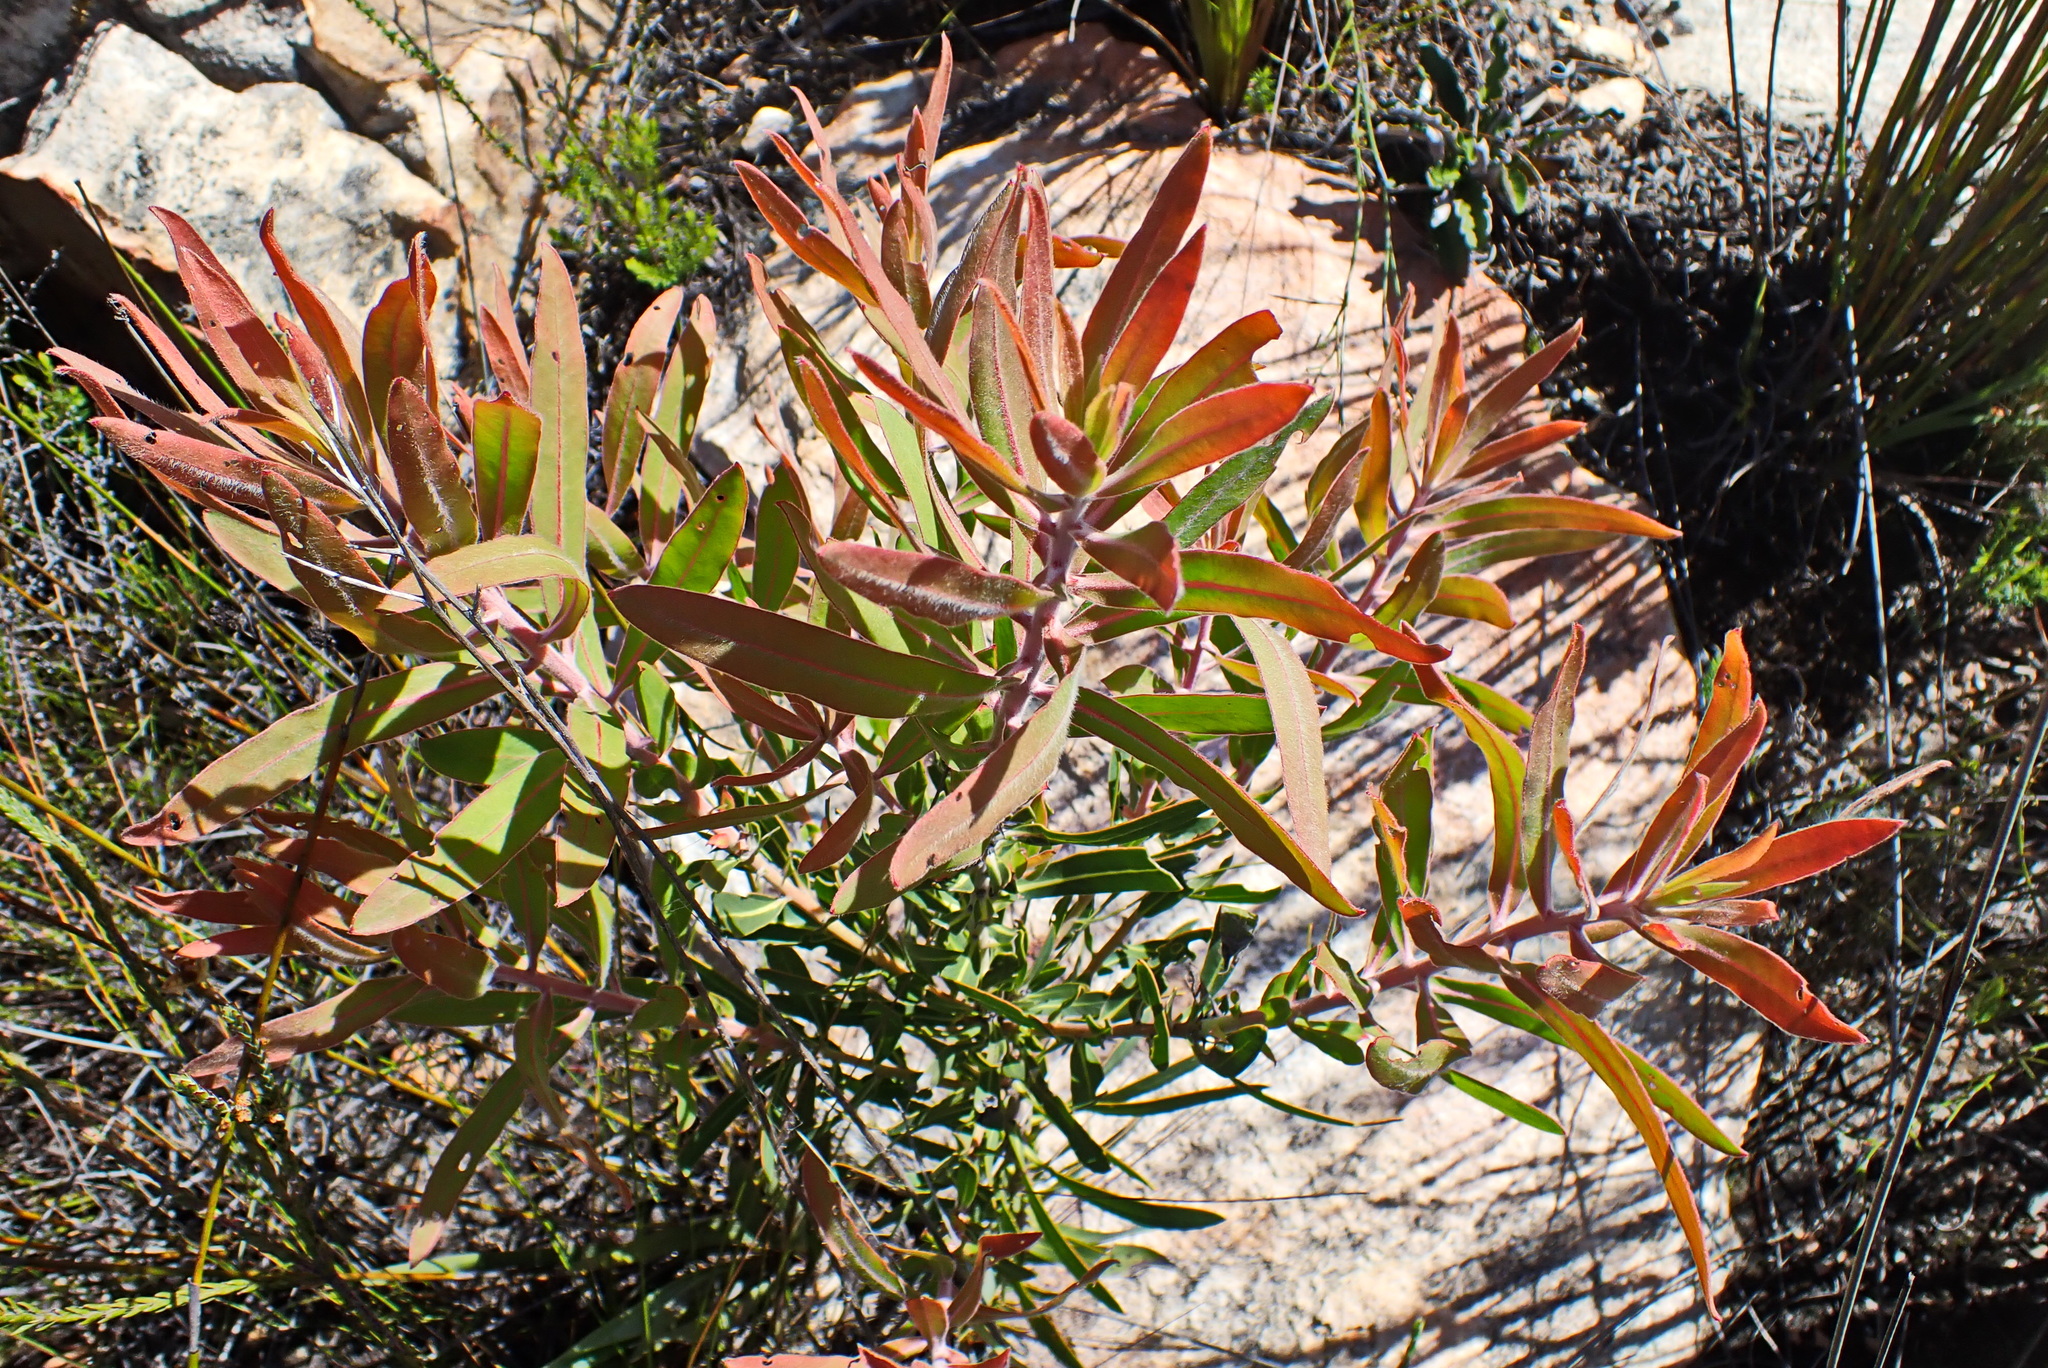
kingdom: Plantae
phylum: Tracheophyta
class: Magnoliopsida
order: Proteales
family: Proteaceae
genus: Protea
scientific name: Protea neriifolia
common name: Blue sugarbush
